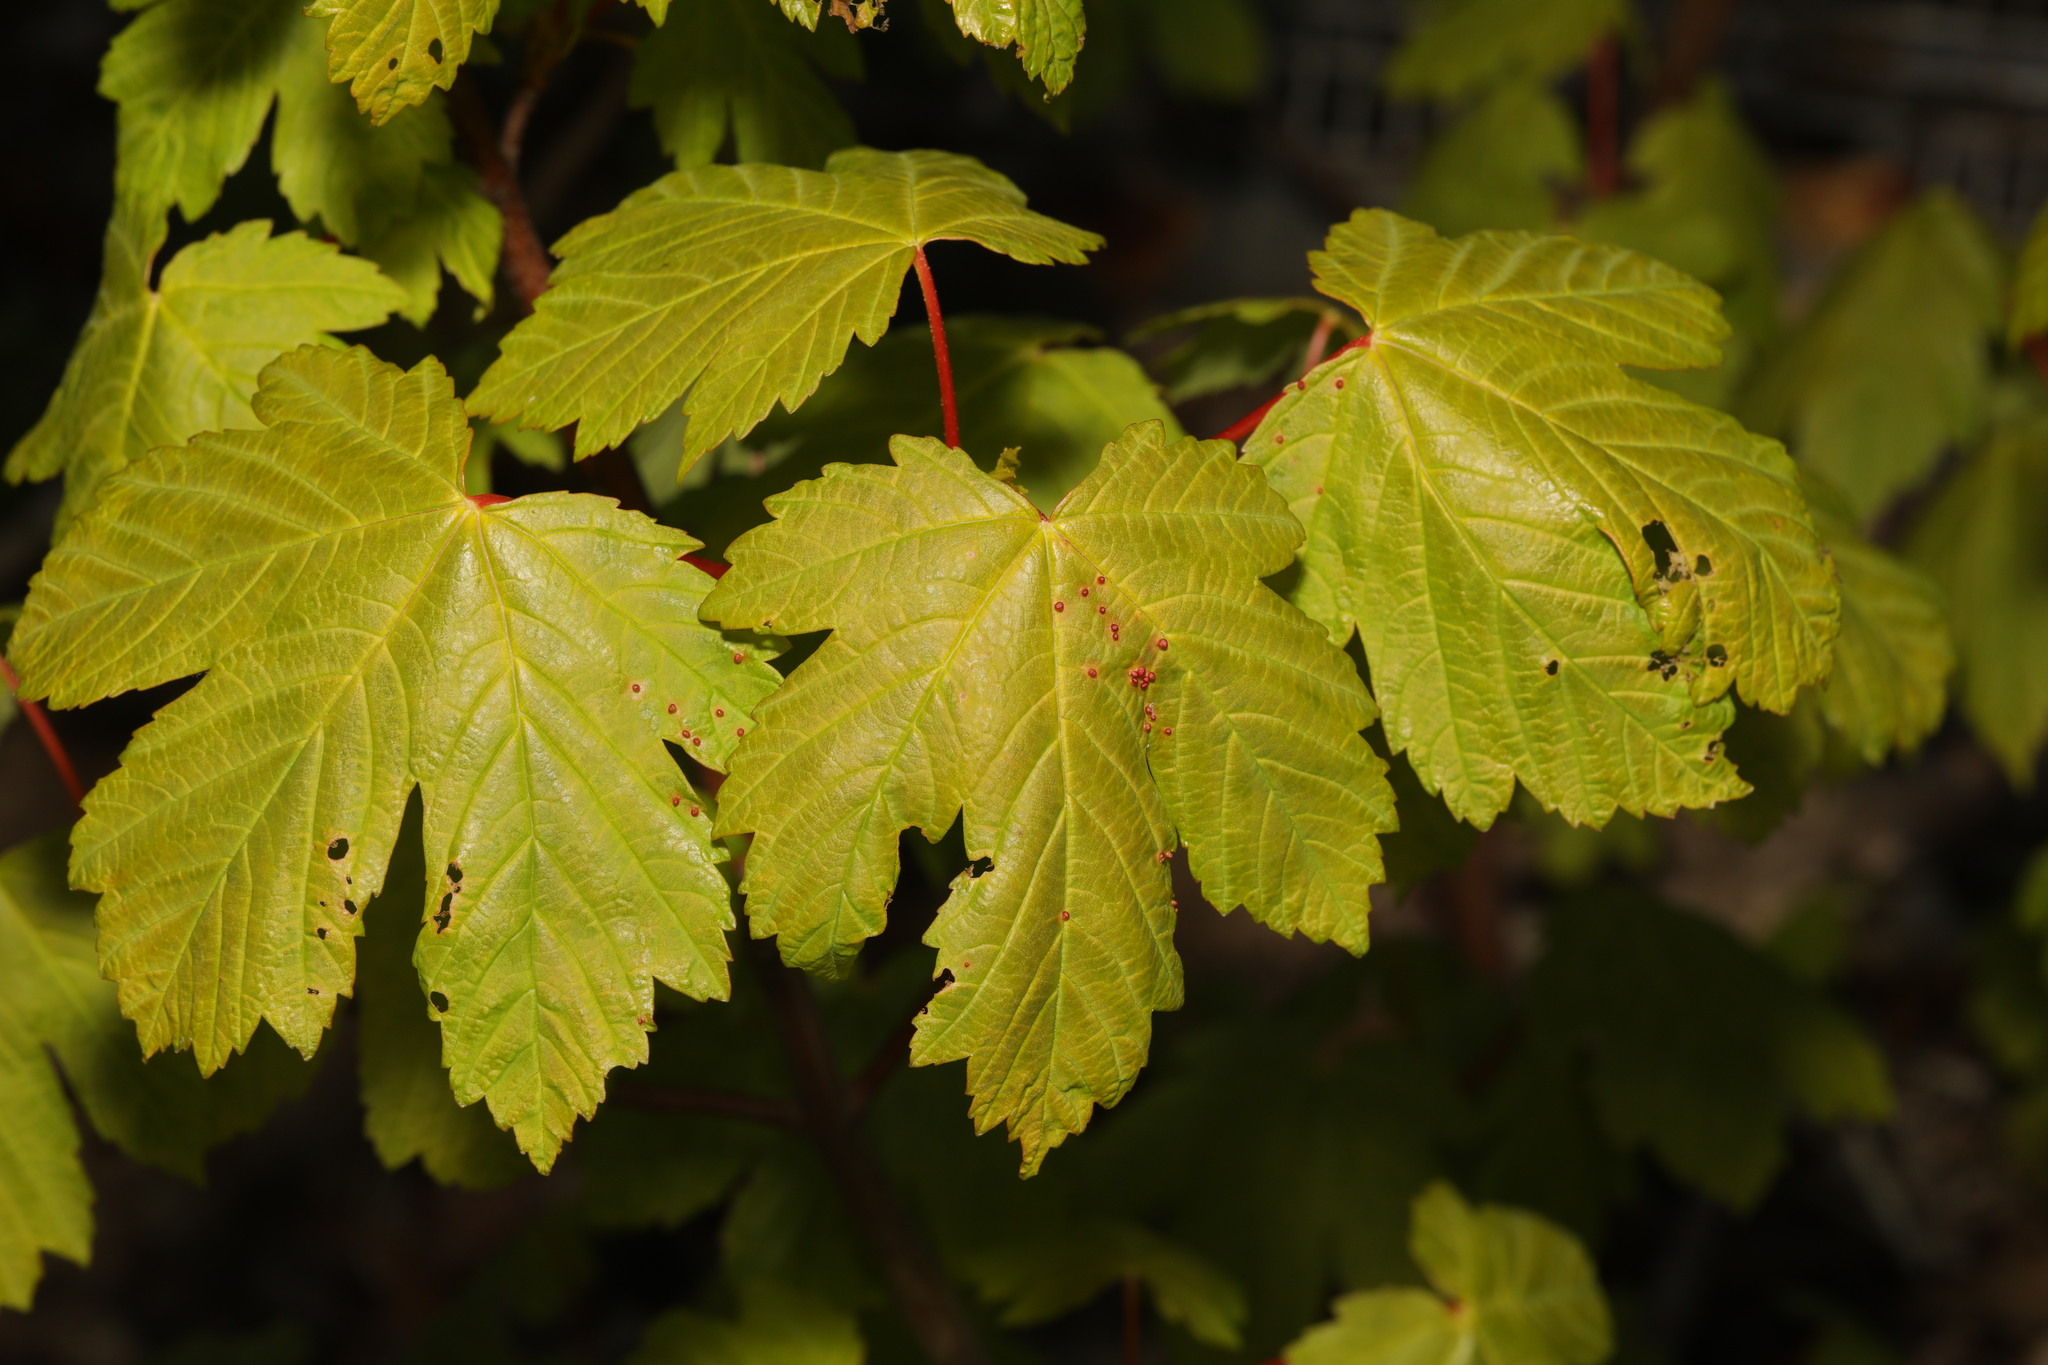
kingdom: Plantae
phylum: Tracheophyta
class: Magnoliopsida
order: Sapindales
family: Sapindaceae
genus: Acer
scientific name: Acer pseudoplatanus
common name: Sycamore
